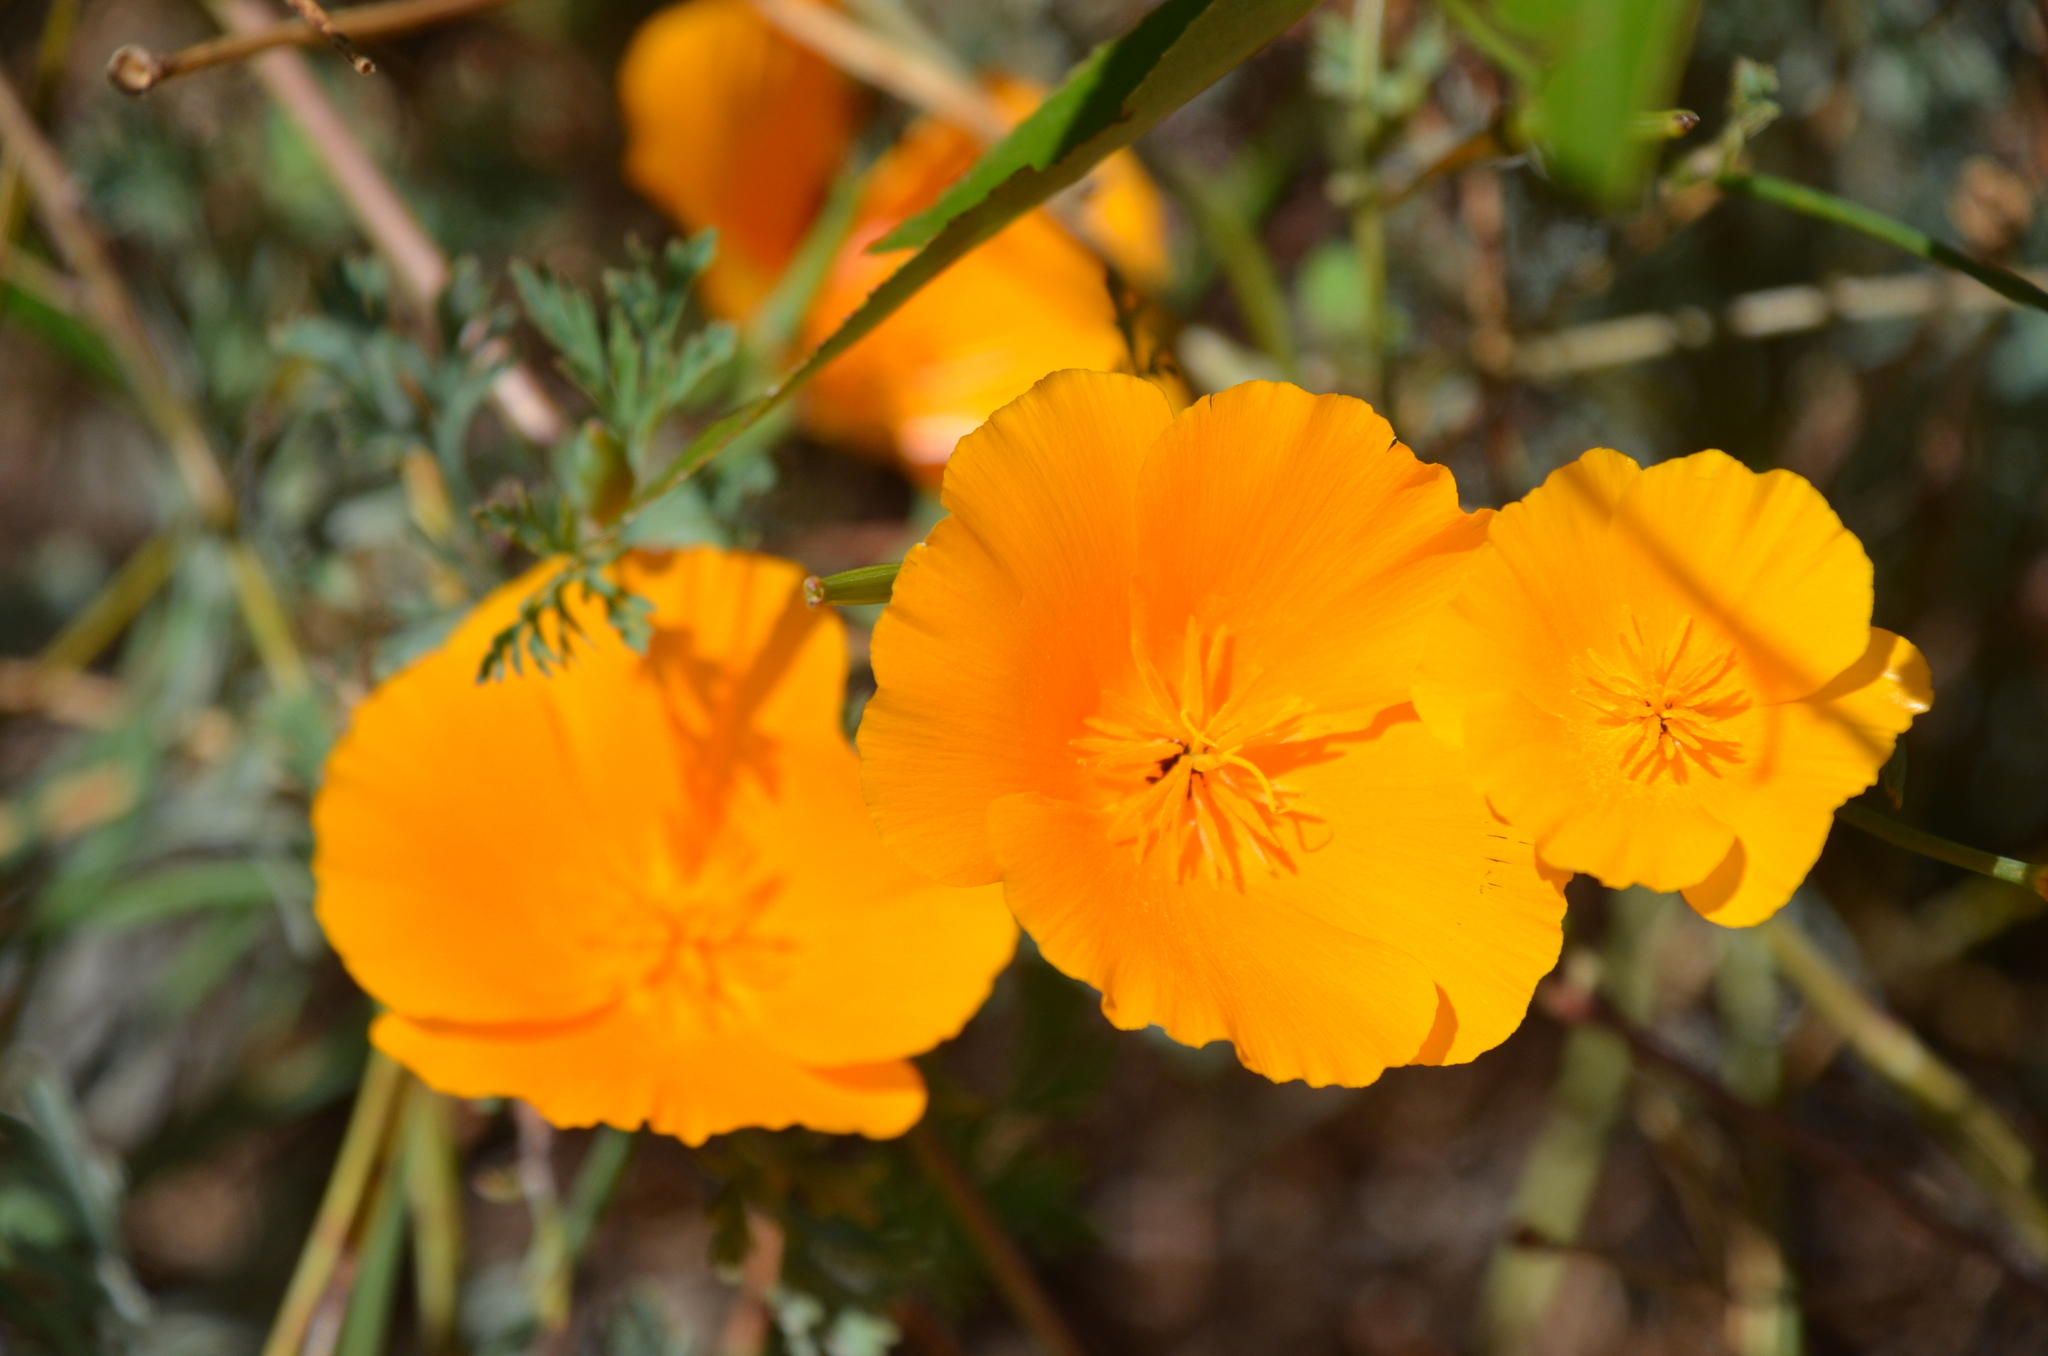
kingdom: Plantae
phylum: Tracheophyta
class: Magnoliopsida
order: Ranunculales
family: Papaveraceae
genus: Eschscholzia
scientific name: Eschscholzia californica
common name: California poppy
